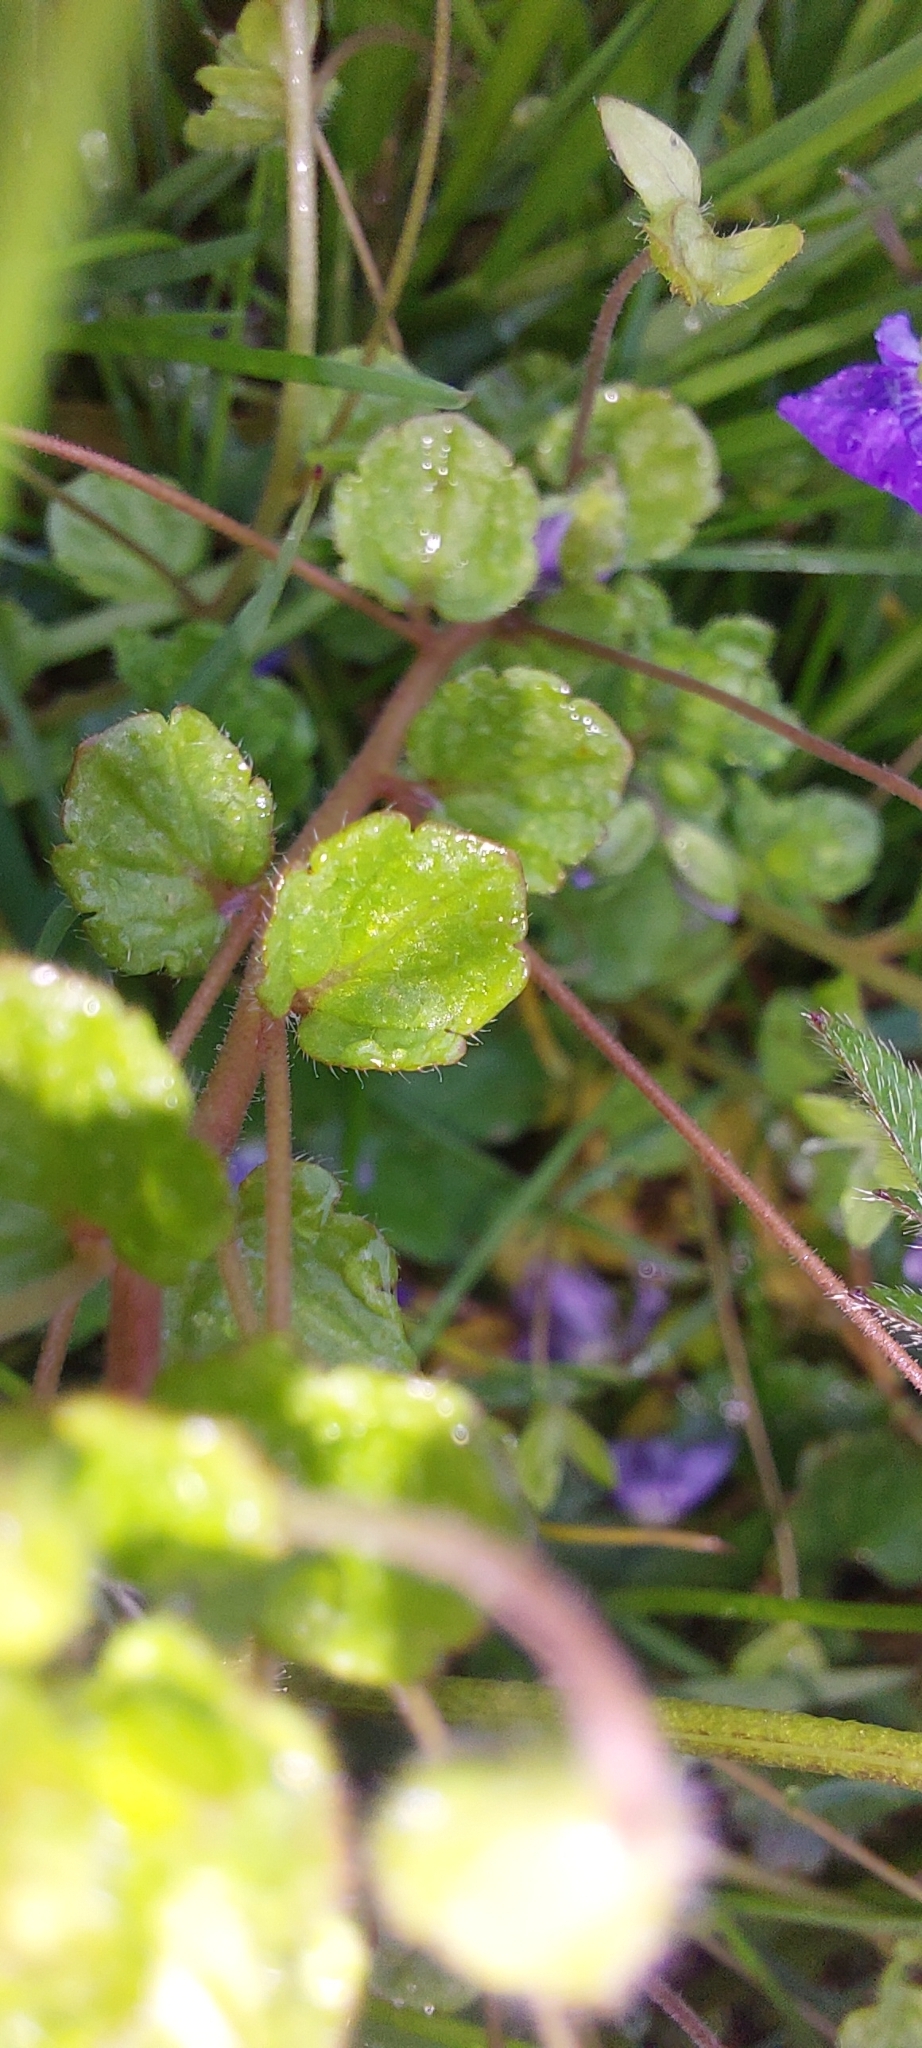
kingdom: Plantae
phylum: Tracheophyta
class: Magnoliopsida
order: Lamiales
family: Plantaginaceae
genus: Veronica
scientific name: Veronica filiformis
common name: Slender speedwell
